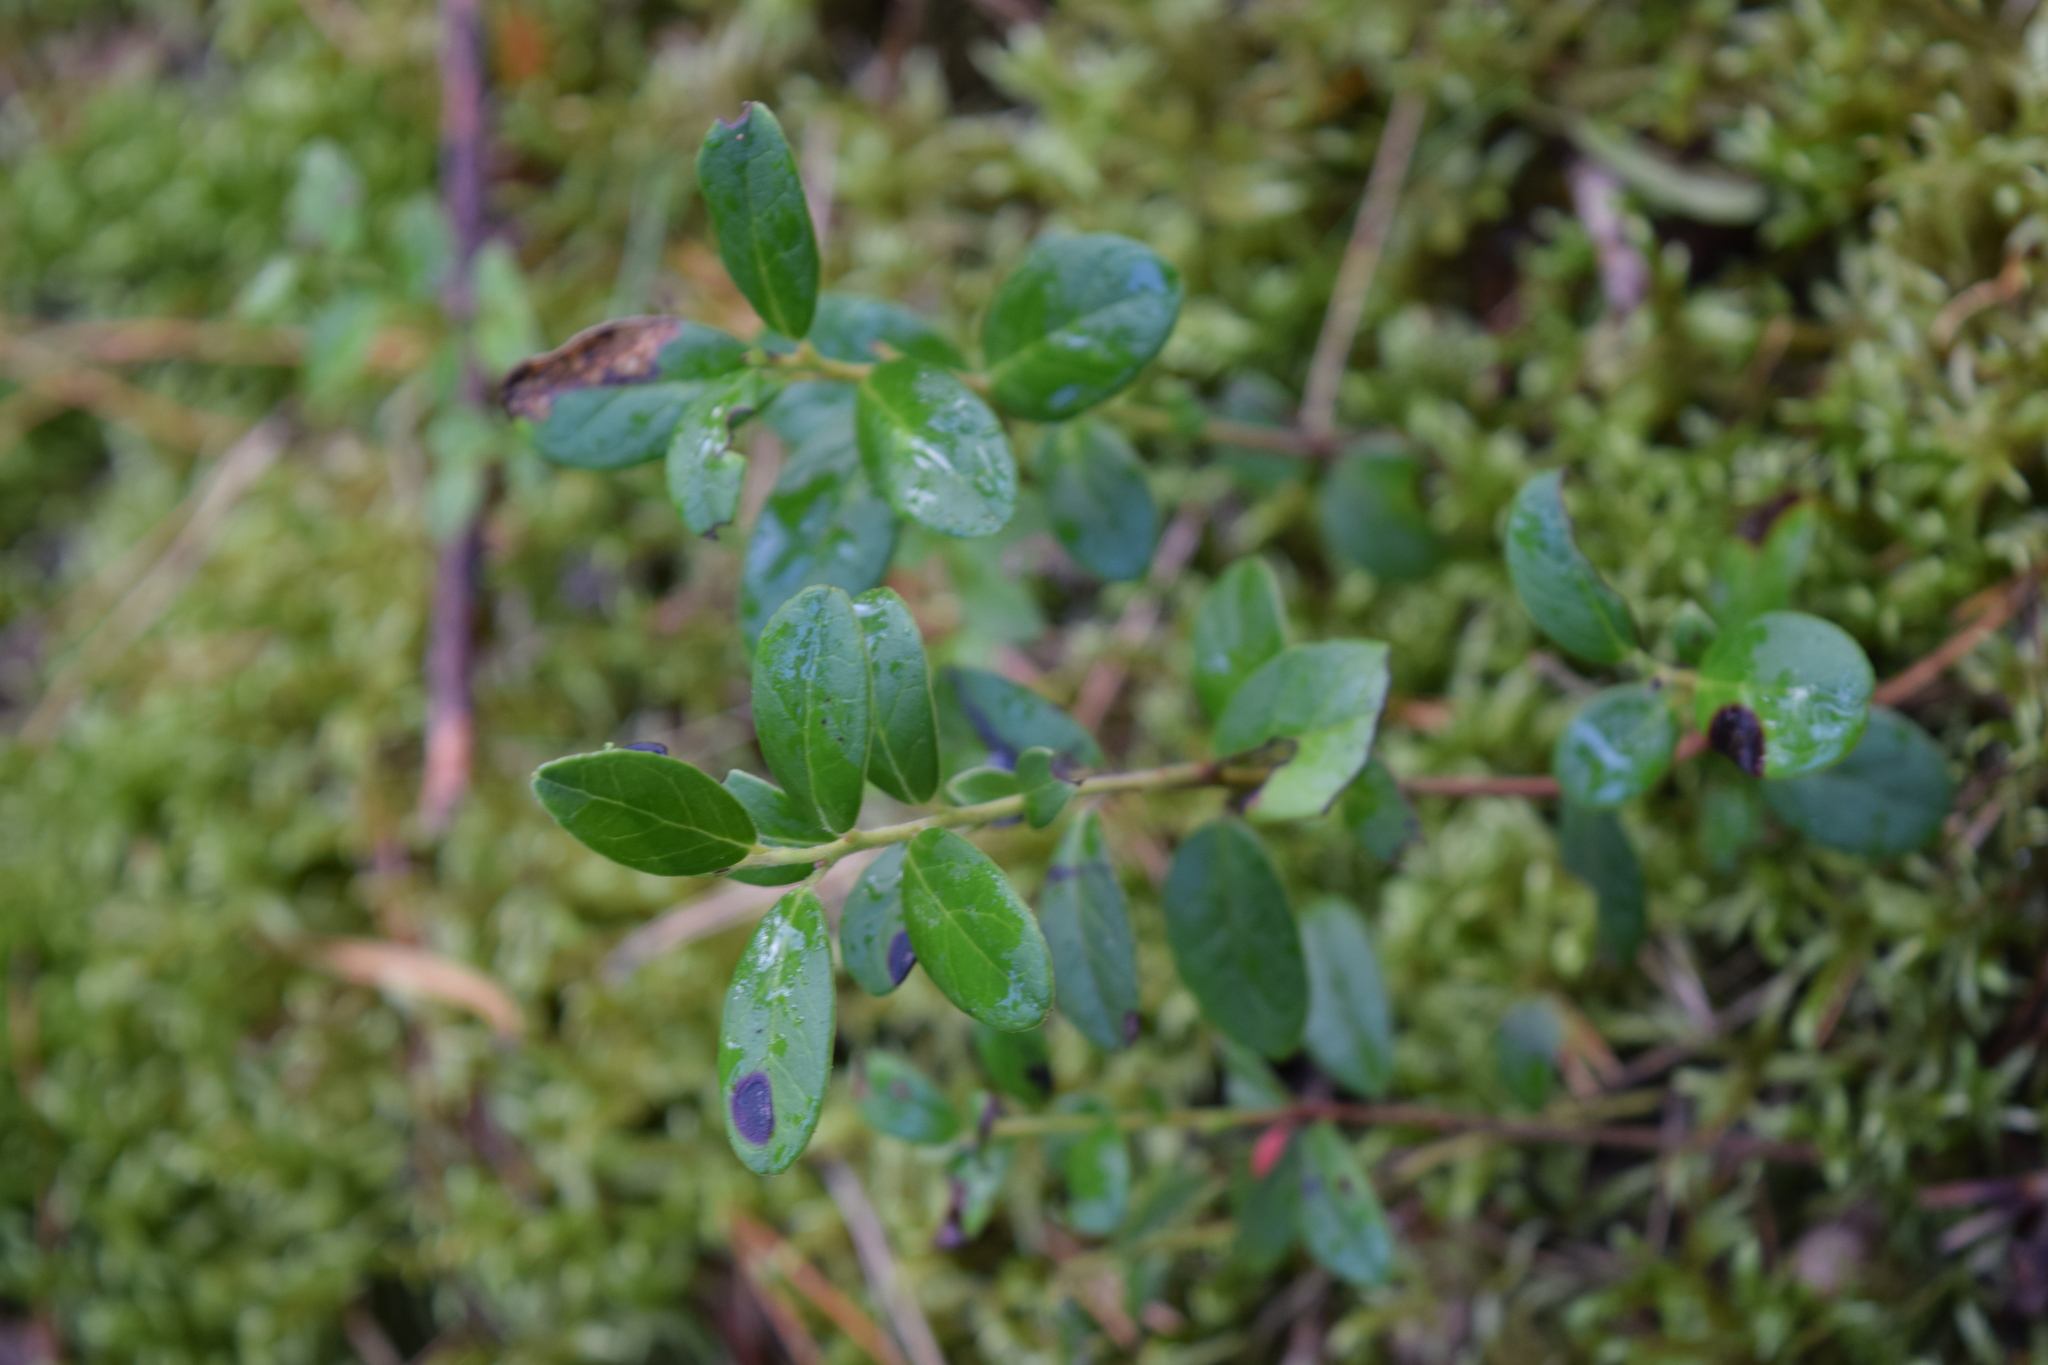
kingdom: Plantae
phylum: Tracheophyta
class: Magnoliopsida
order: Ericales
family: Ericaceae
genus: Vaccinium
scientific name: Vaccinium vitis-idaea
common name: Cowberry
